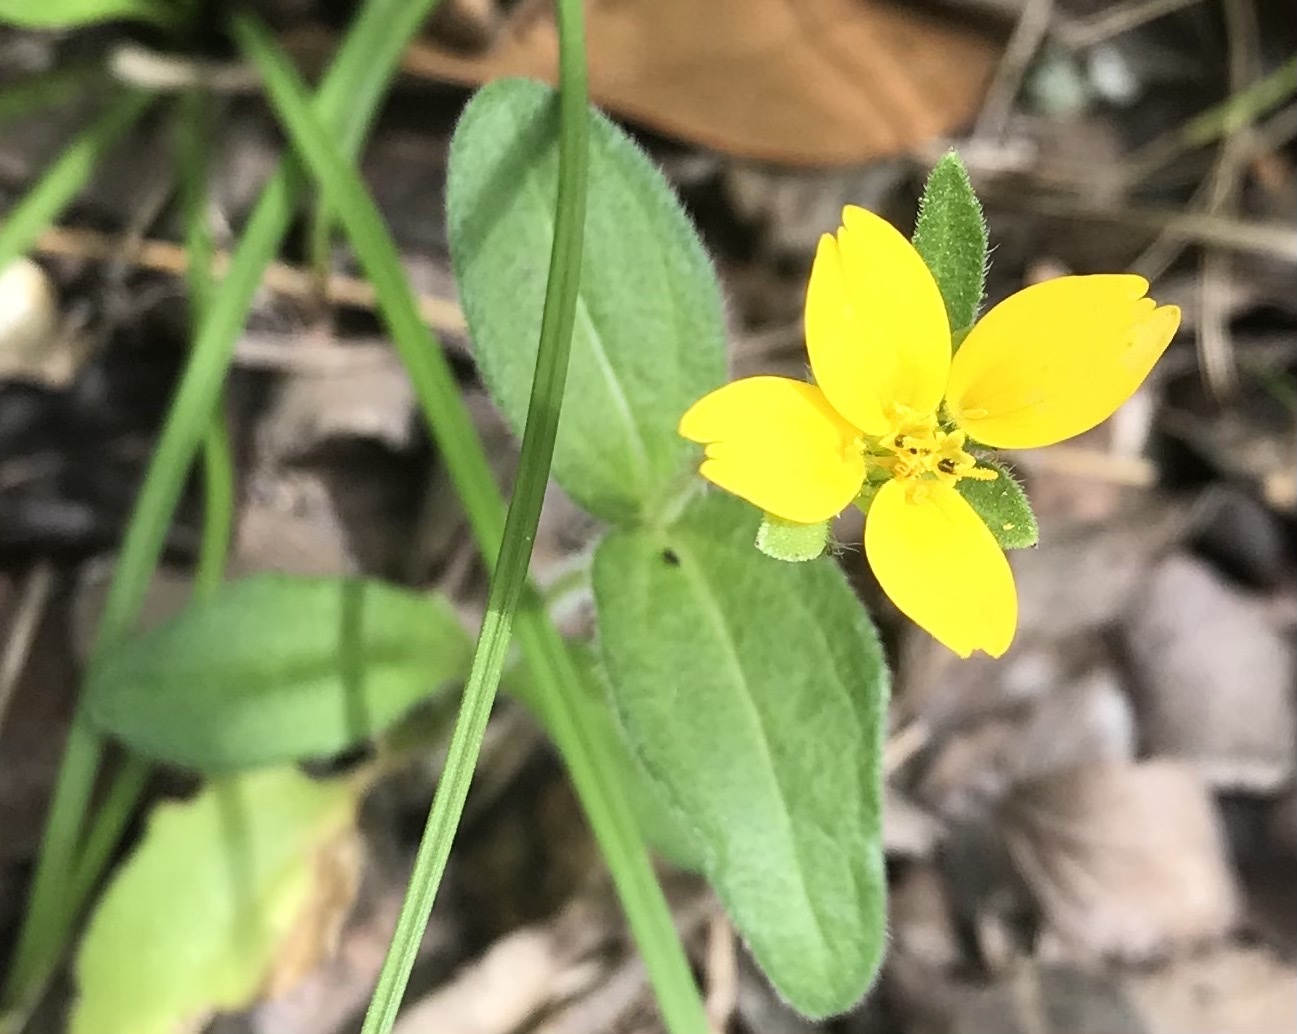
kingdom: Plantae
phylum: Tracheophyta
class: Magnoliopsida
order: Asterales
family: Asteraceae
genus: Lindheimera
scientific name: Lindheimera texana
